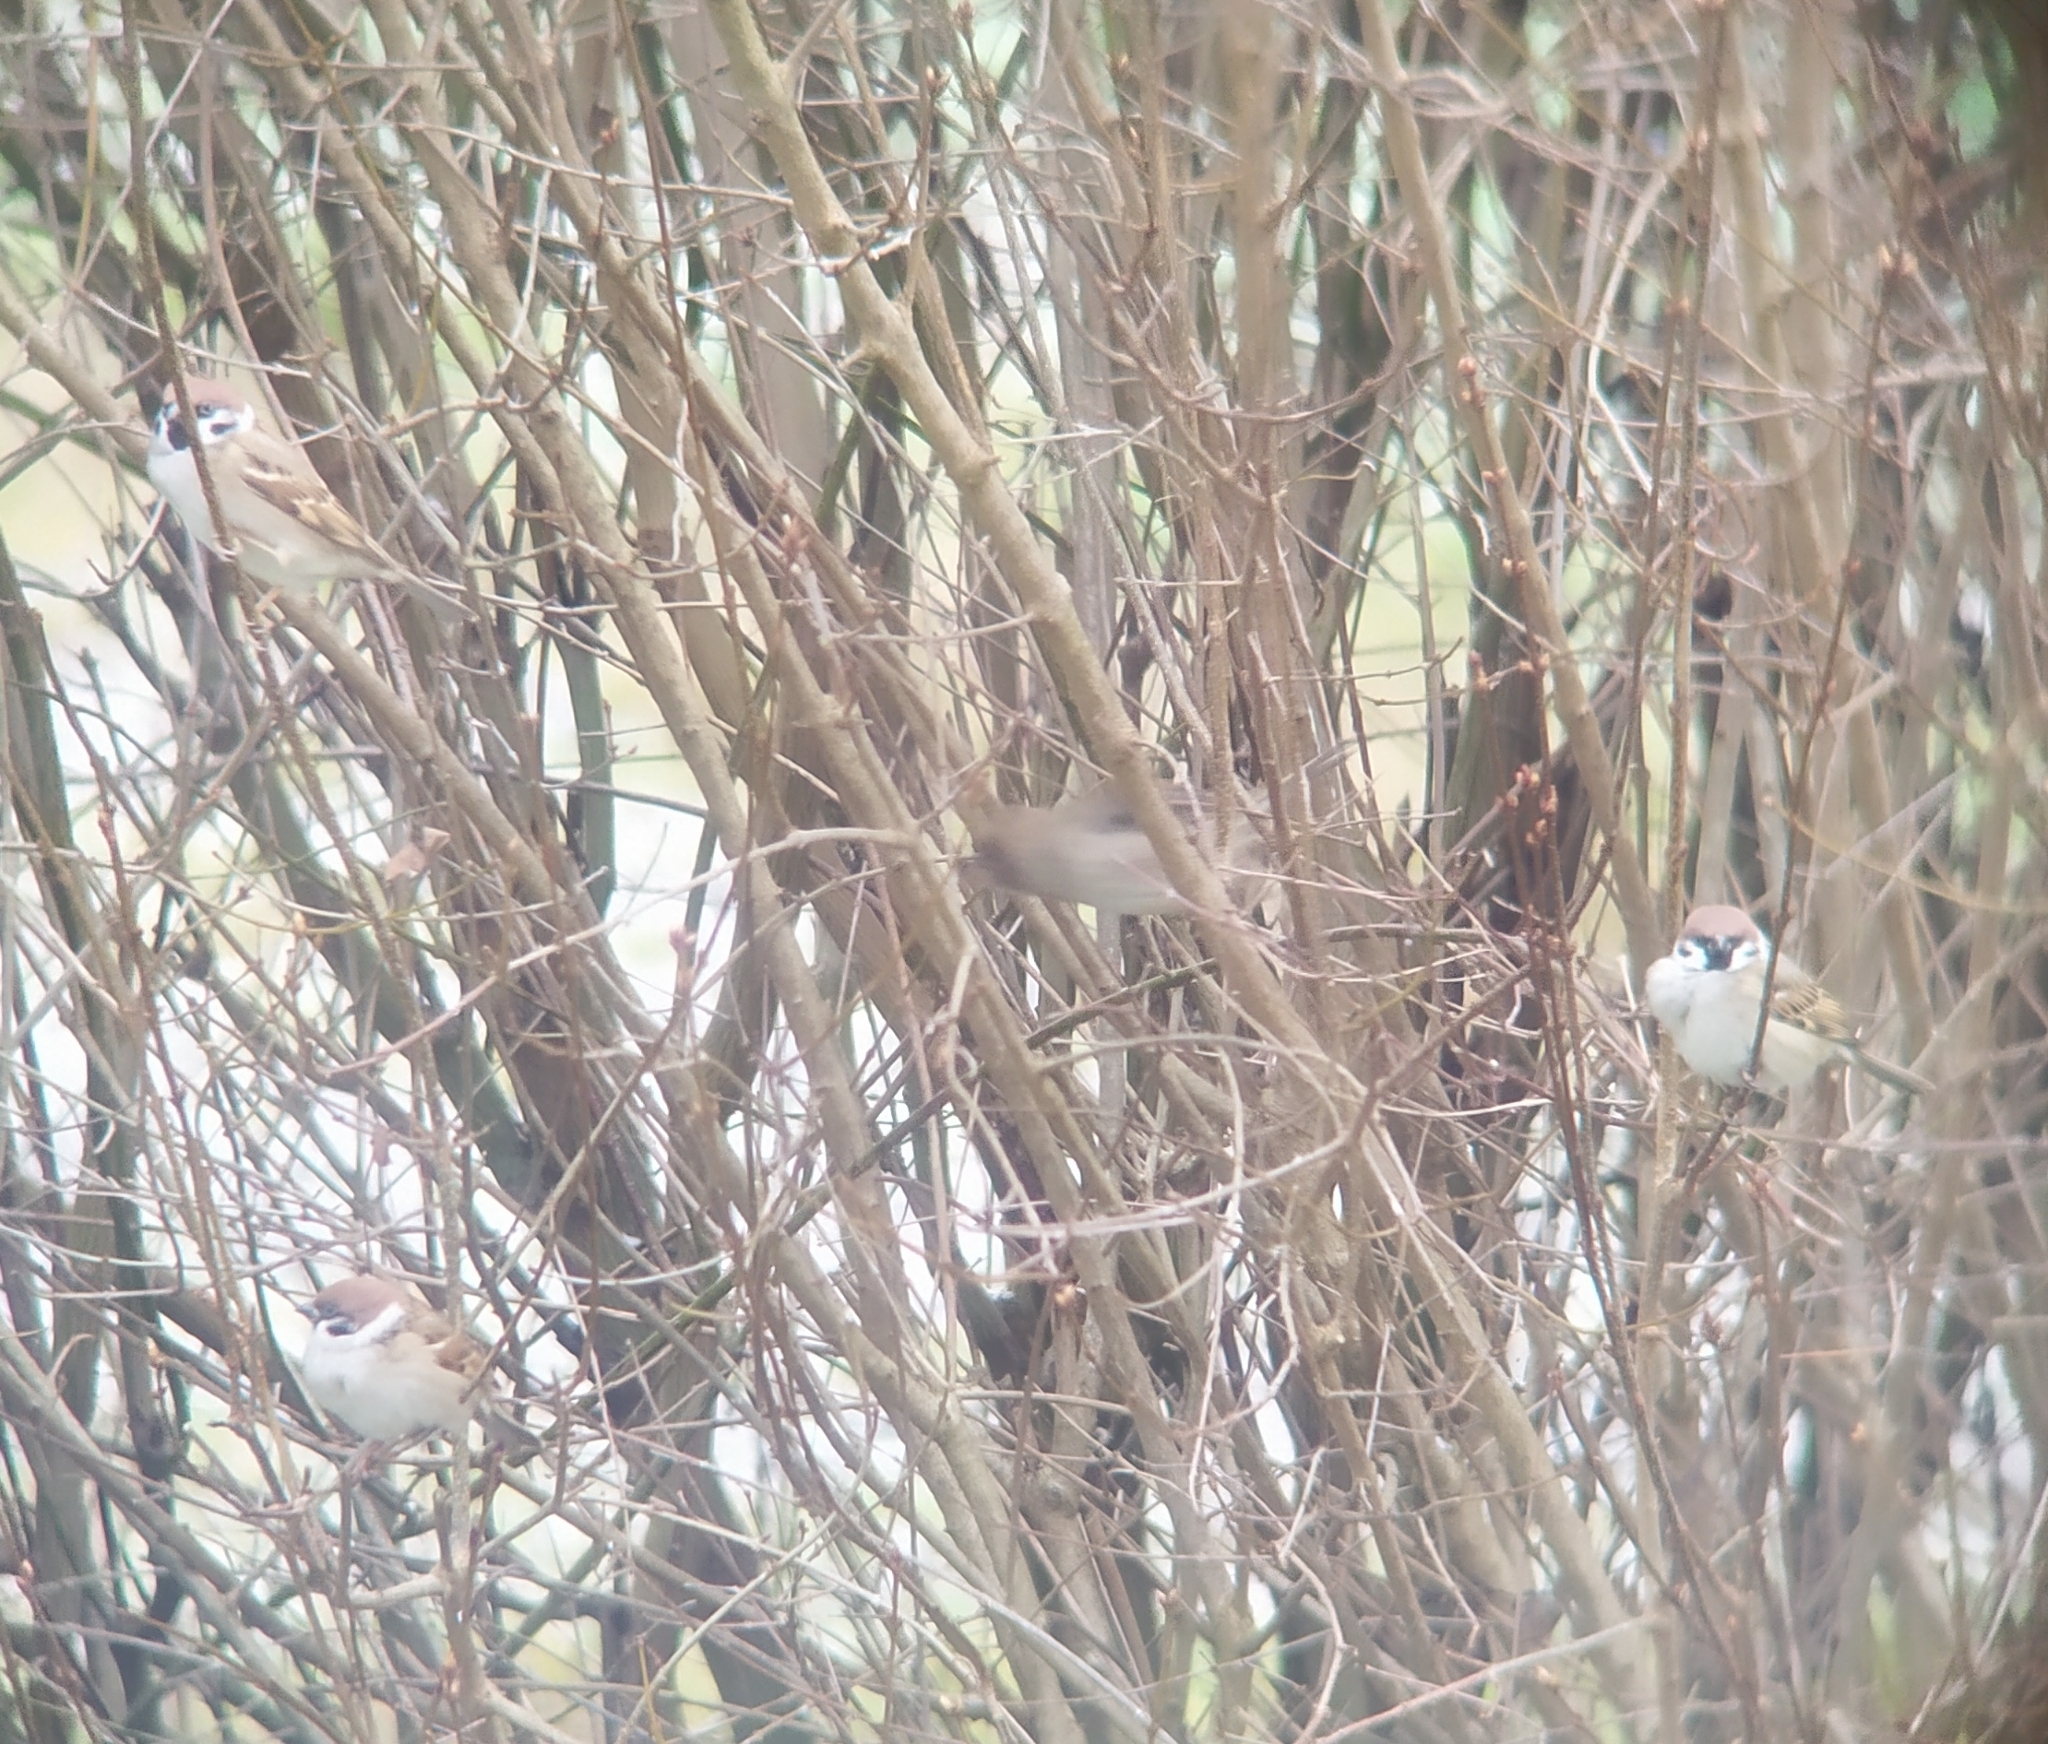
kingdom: Animalia
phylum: Chordata
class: Aves
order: Passeriformes
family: Passeridae
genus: Passer
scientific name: Passer montanus
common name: Eurasian tree sparrow
